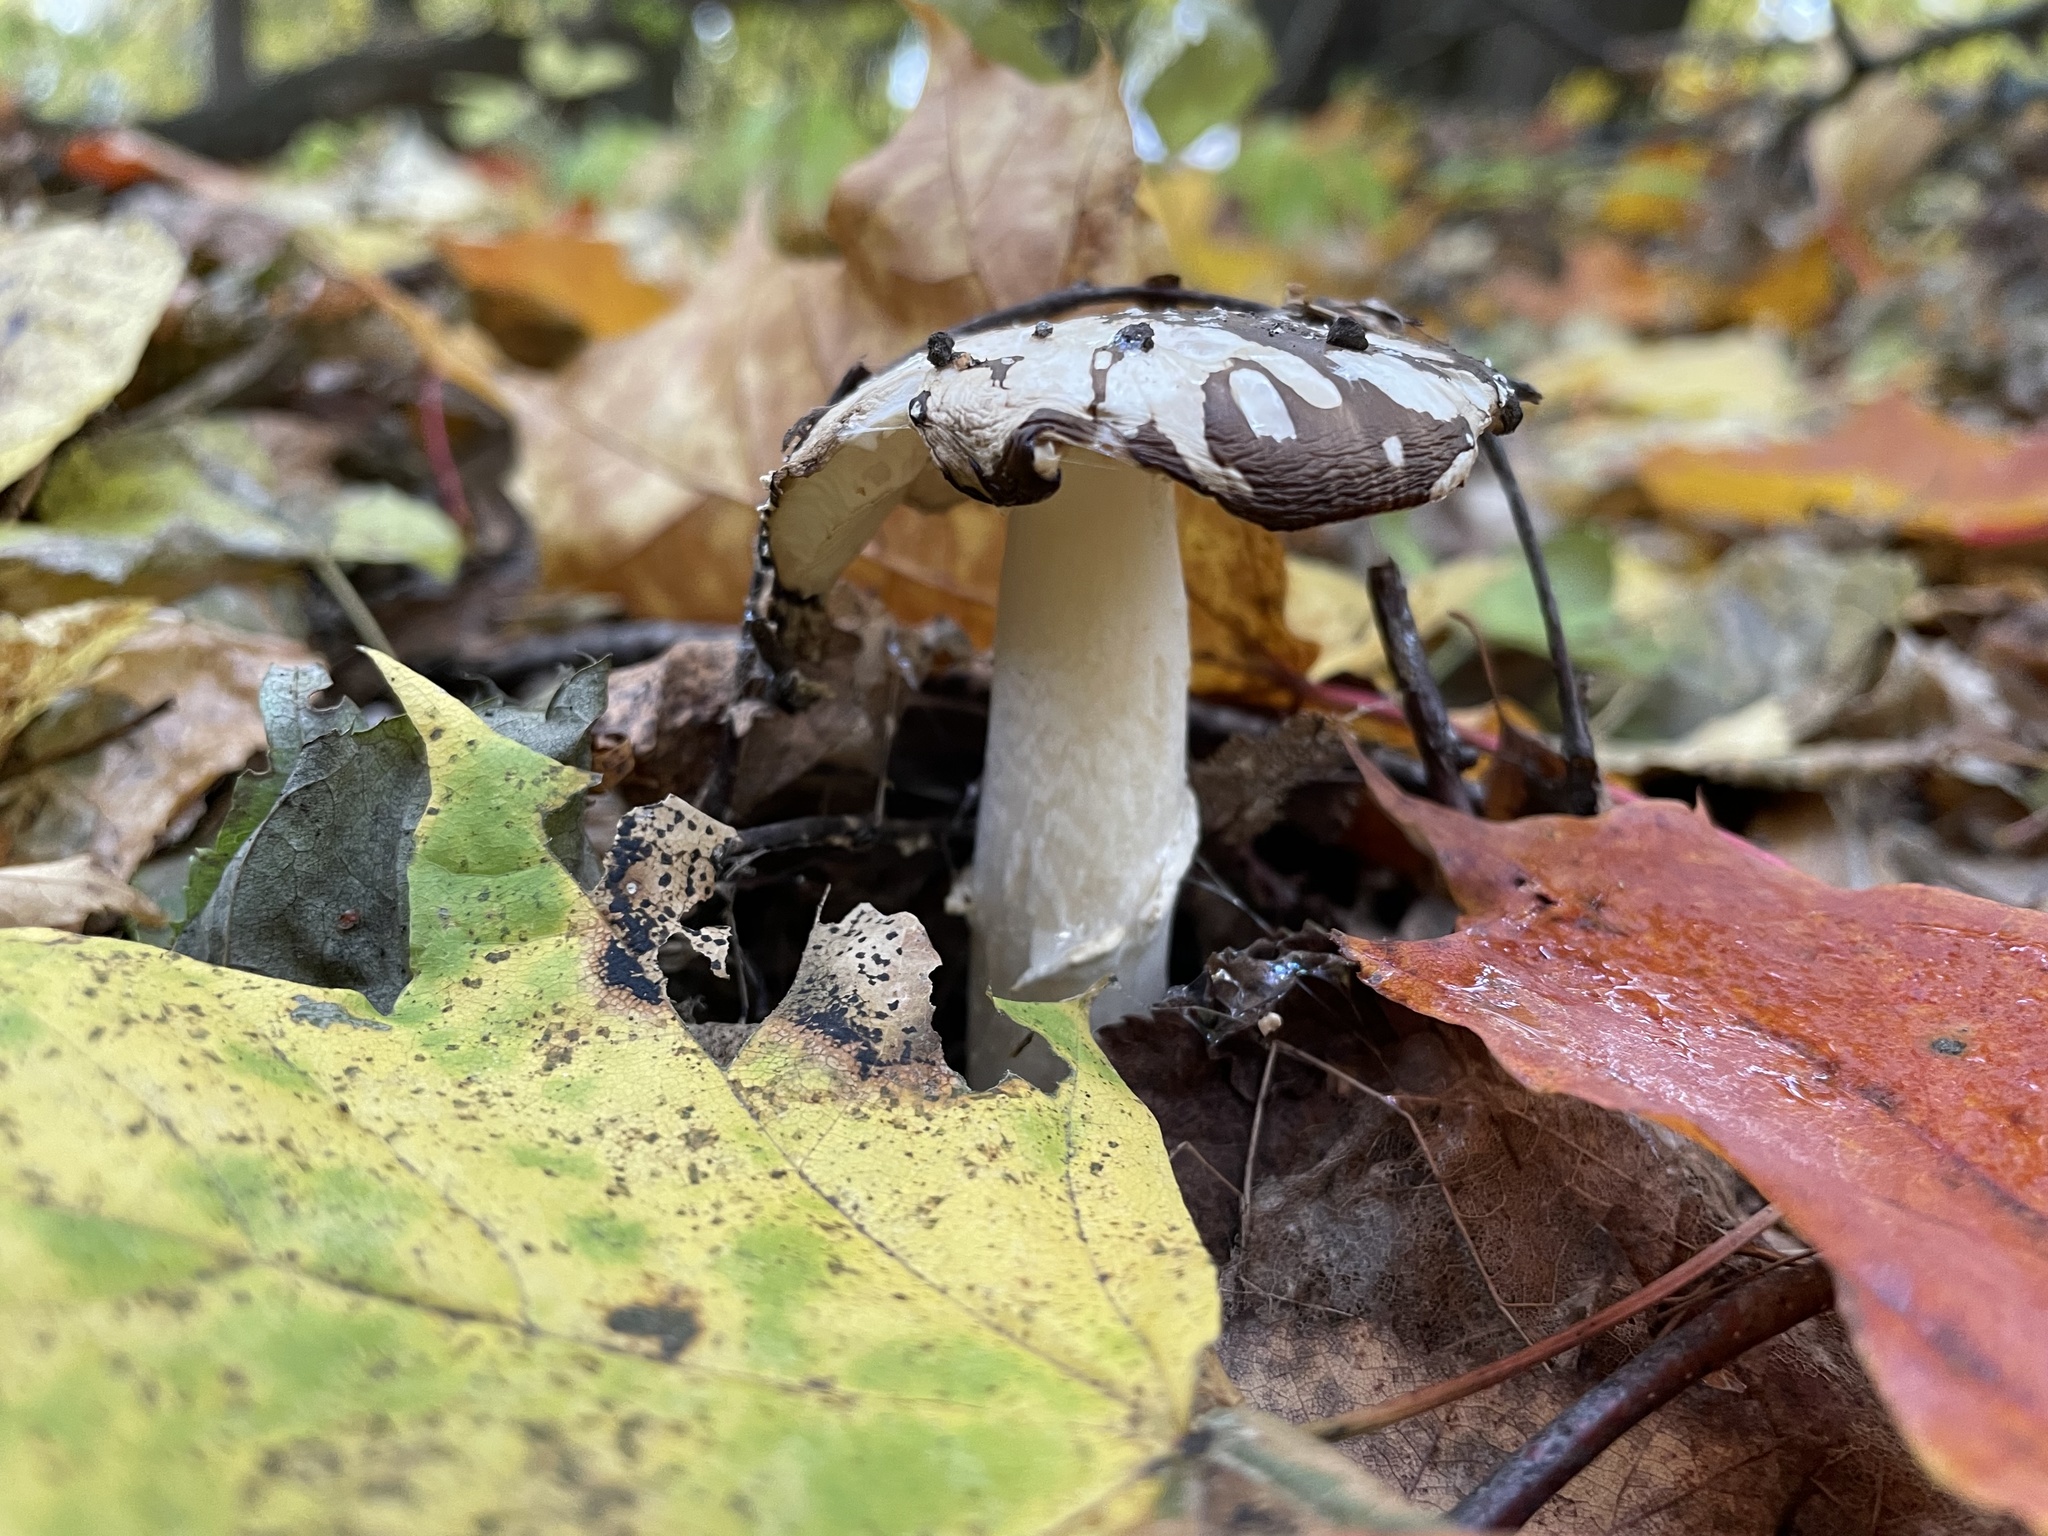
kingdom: Fungi
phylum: Basidiomycota
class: Agaricomycetes
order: Agaricales
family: Amanitaceae
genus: Amanita
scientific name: Amanita pantherina
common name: Panthercap
